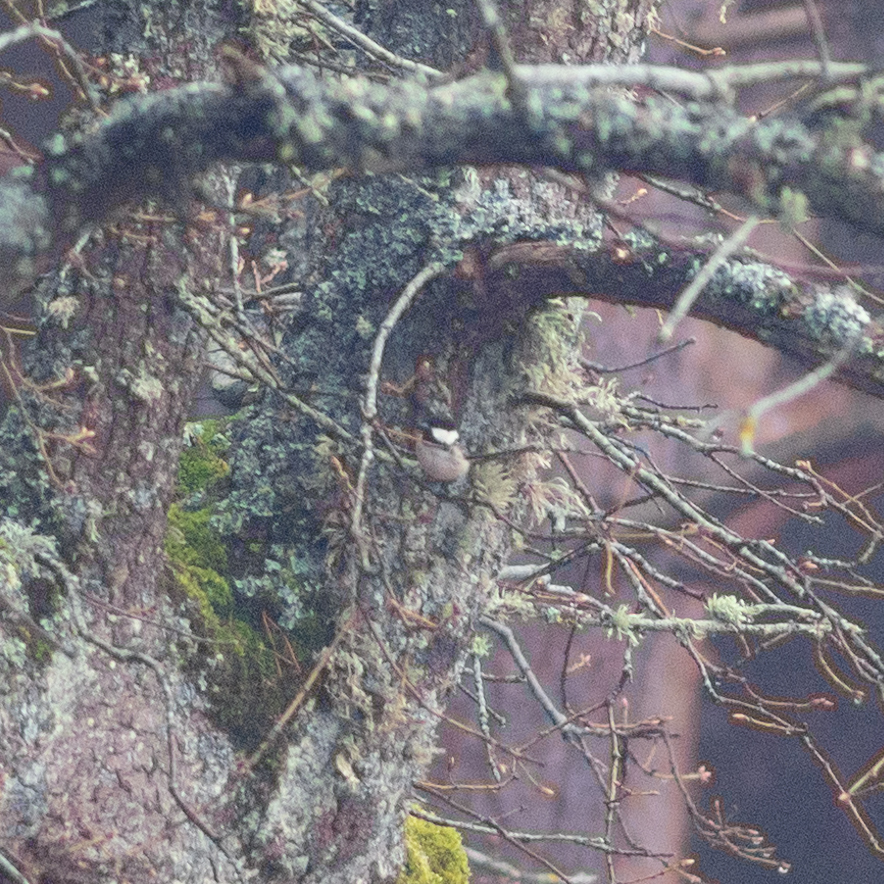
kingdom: Animalia
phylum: Chordata
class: Aves
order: Passeriformes
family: Paridae
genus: Periparus
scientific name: Periparus ater
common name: Coal tit
